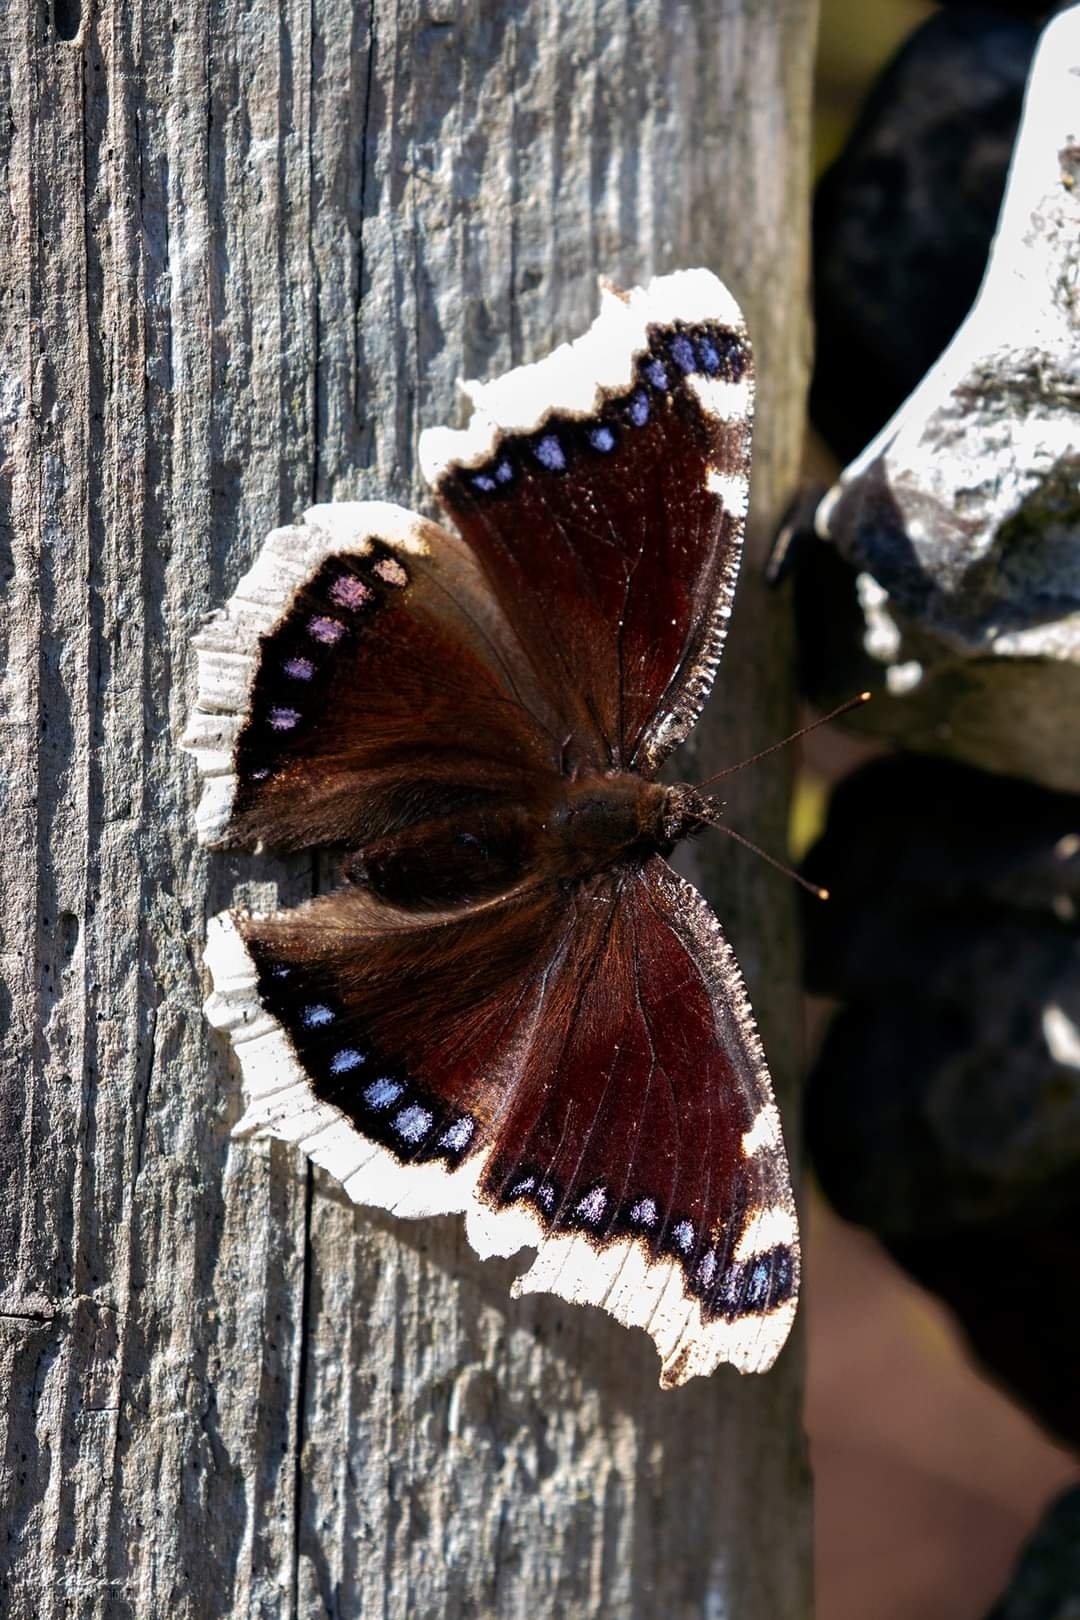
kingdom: Animalia
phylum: Arthropoda
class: Insecta
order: Lepidoptera
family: Nymphalidae
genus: Nymphalis
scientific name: Nymphalis antiopa
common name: Camberwell beauty
